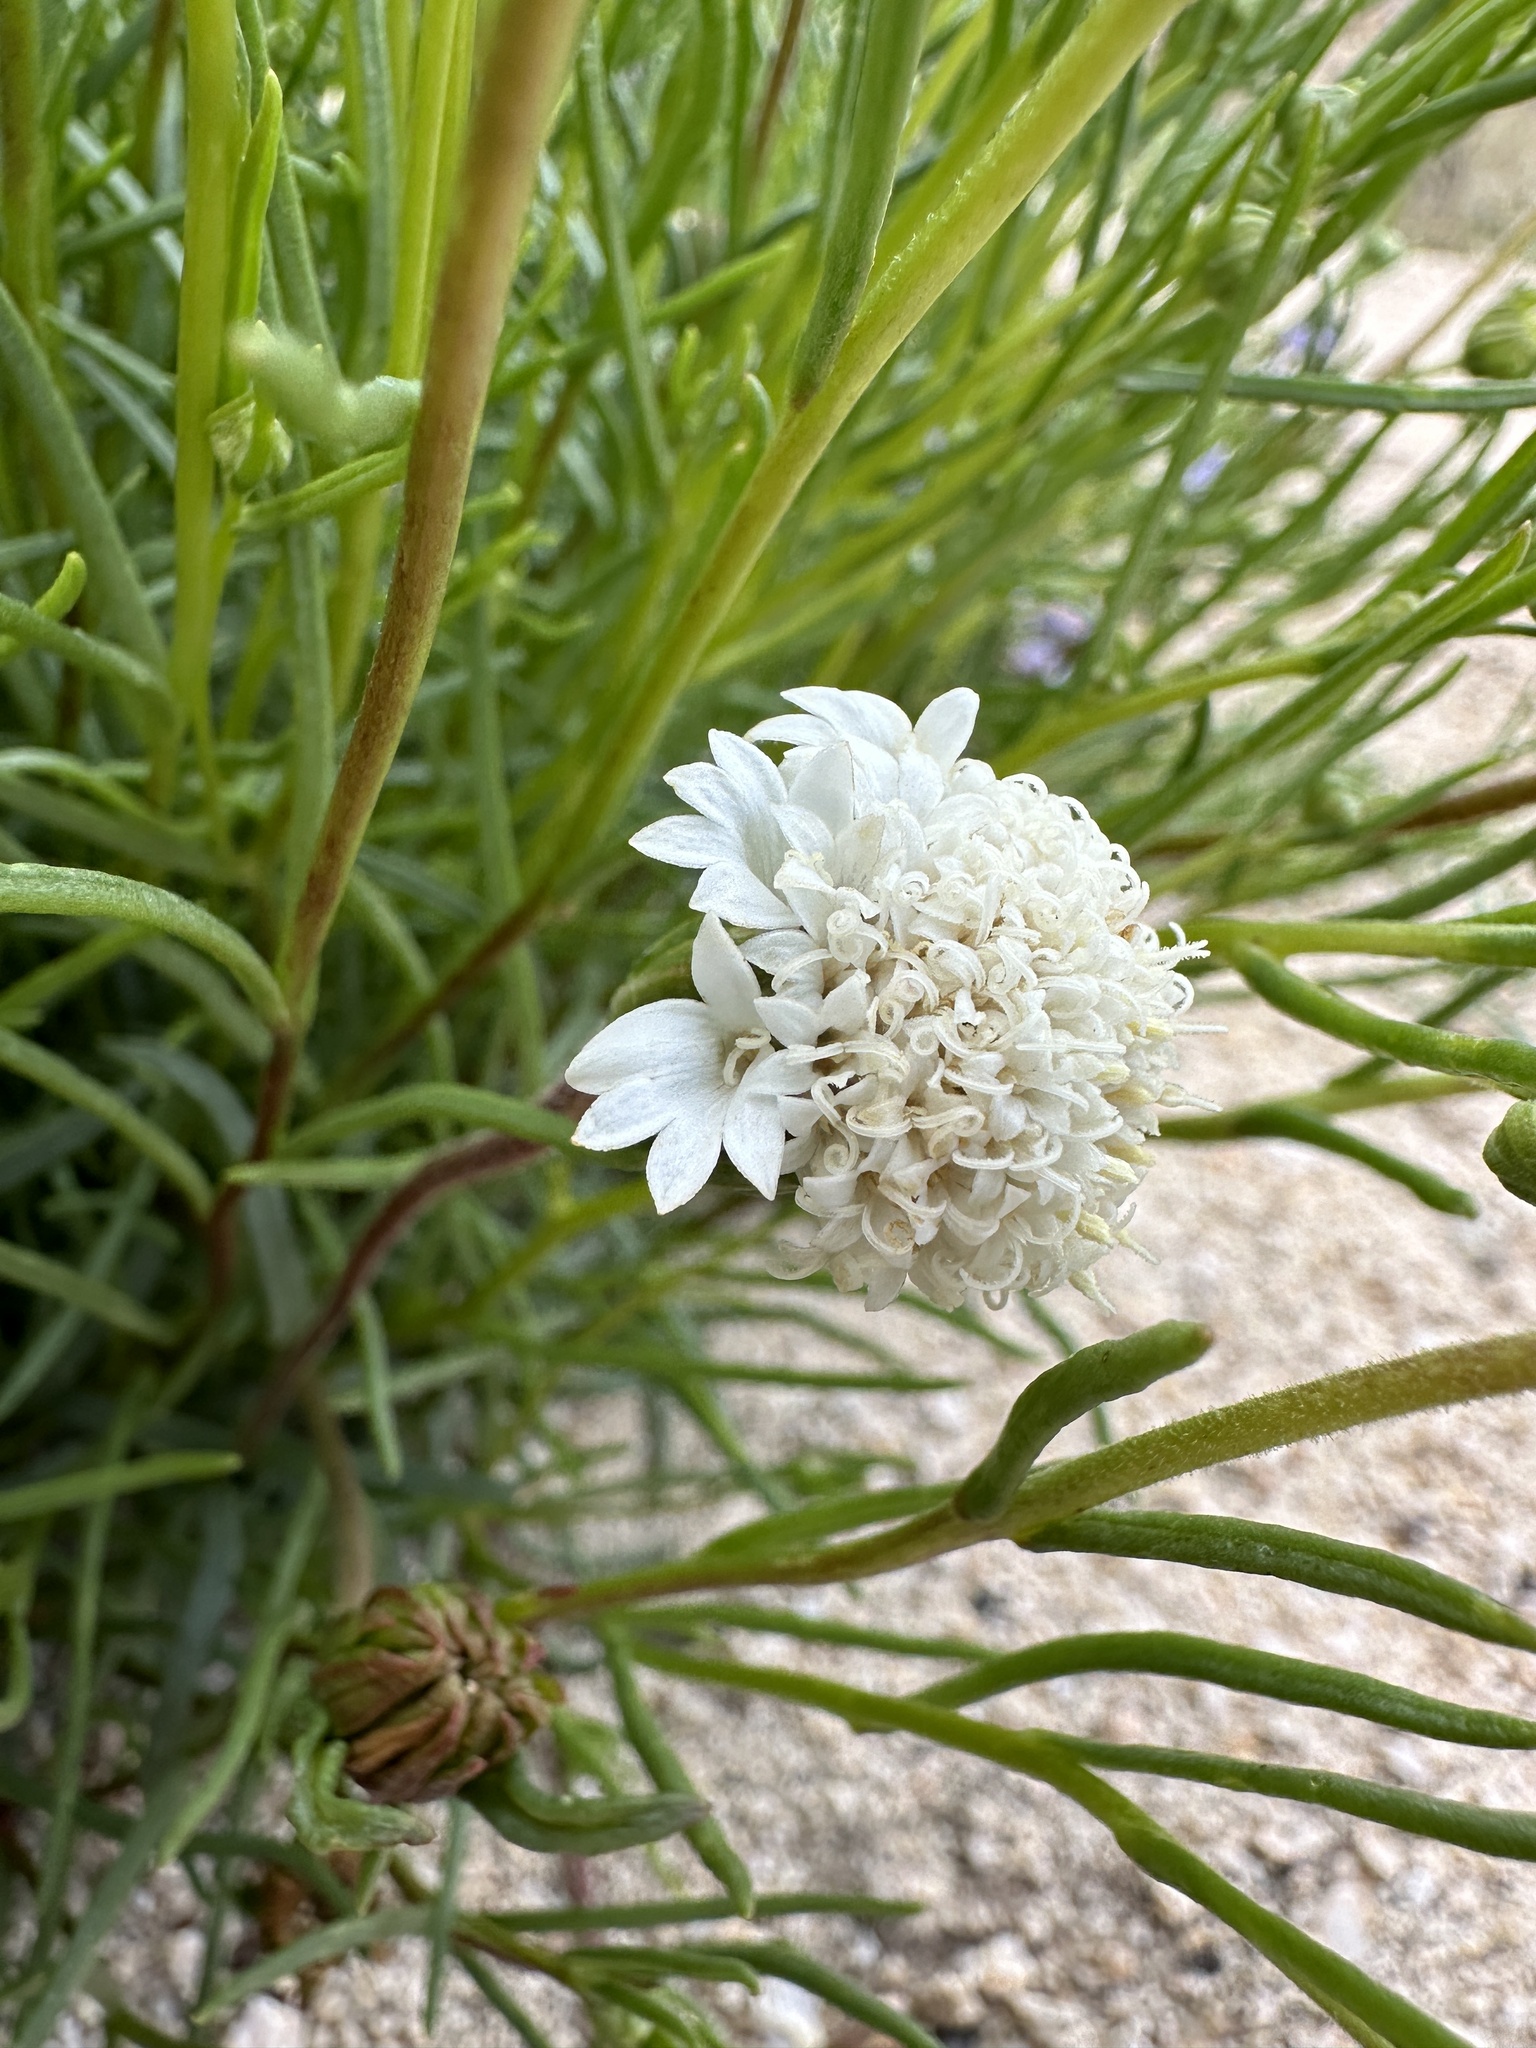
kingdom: Plantae
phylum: Tracheophyta
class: Magnoliopsida
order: Asterales
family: Asteraceae
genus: Chaenactis
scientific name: Chaenactis fremontii
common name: Fremont pincushion
